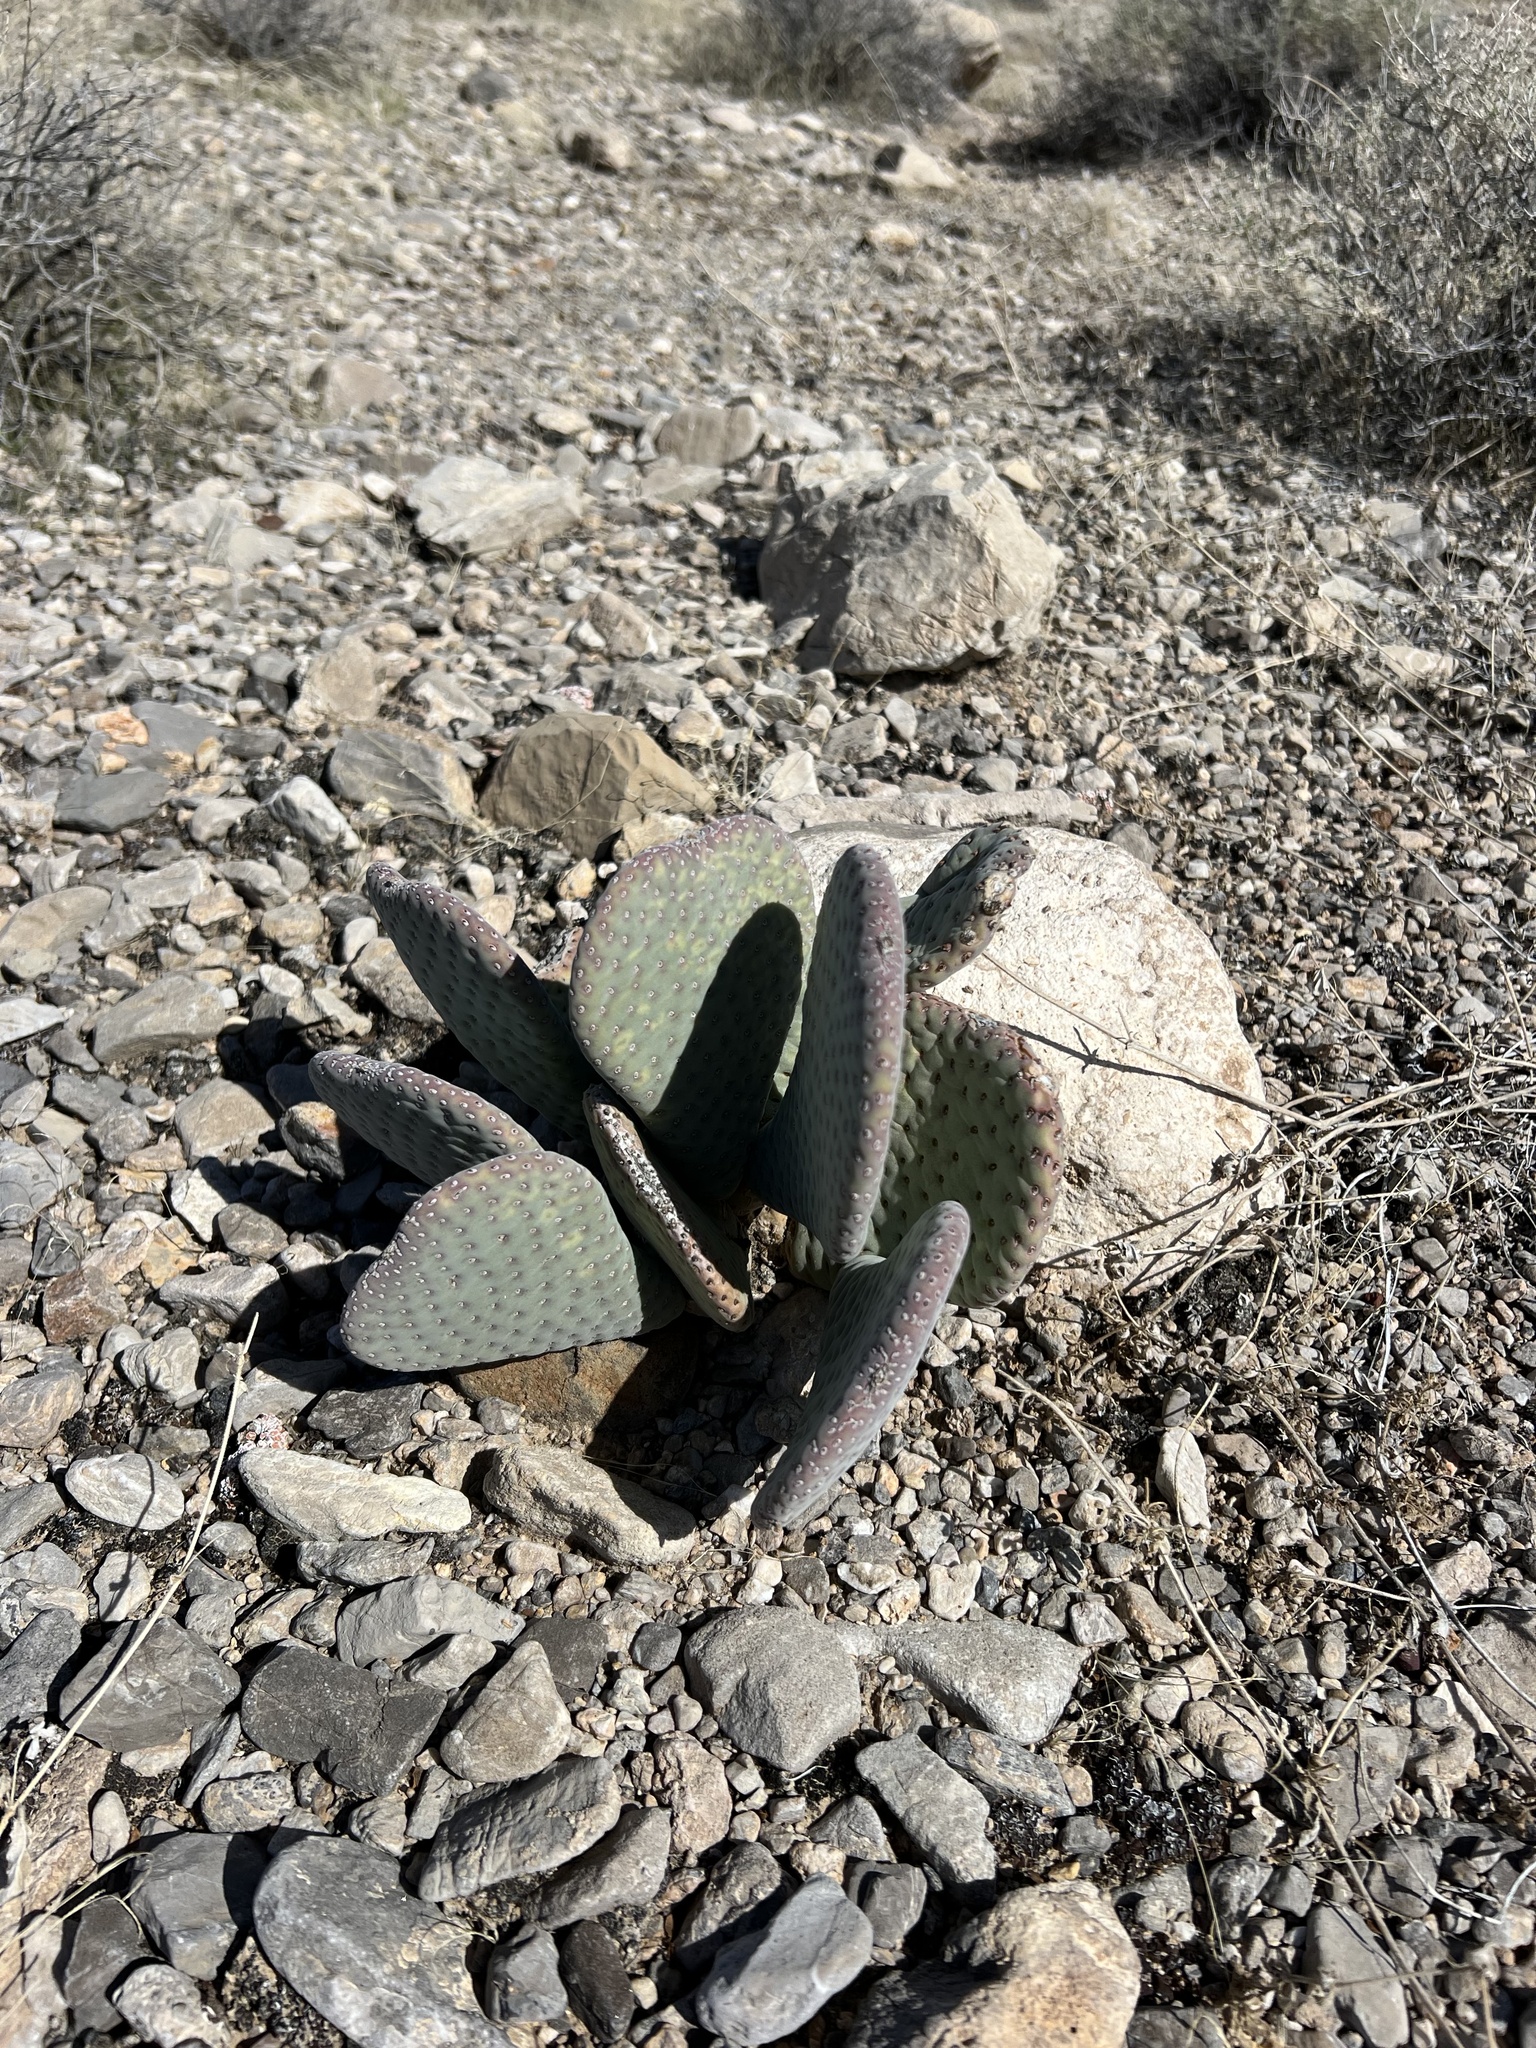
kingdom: Plantae
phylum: Tracheophyta
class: Magnoliopsida
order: Caryophyllales
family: Cactaceae
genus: Opuntia
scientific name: Opuntia basilaris
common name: Beavertail prickly-pear
